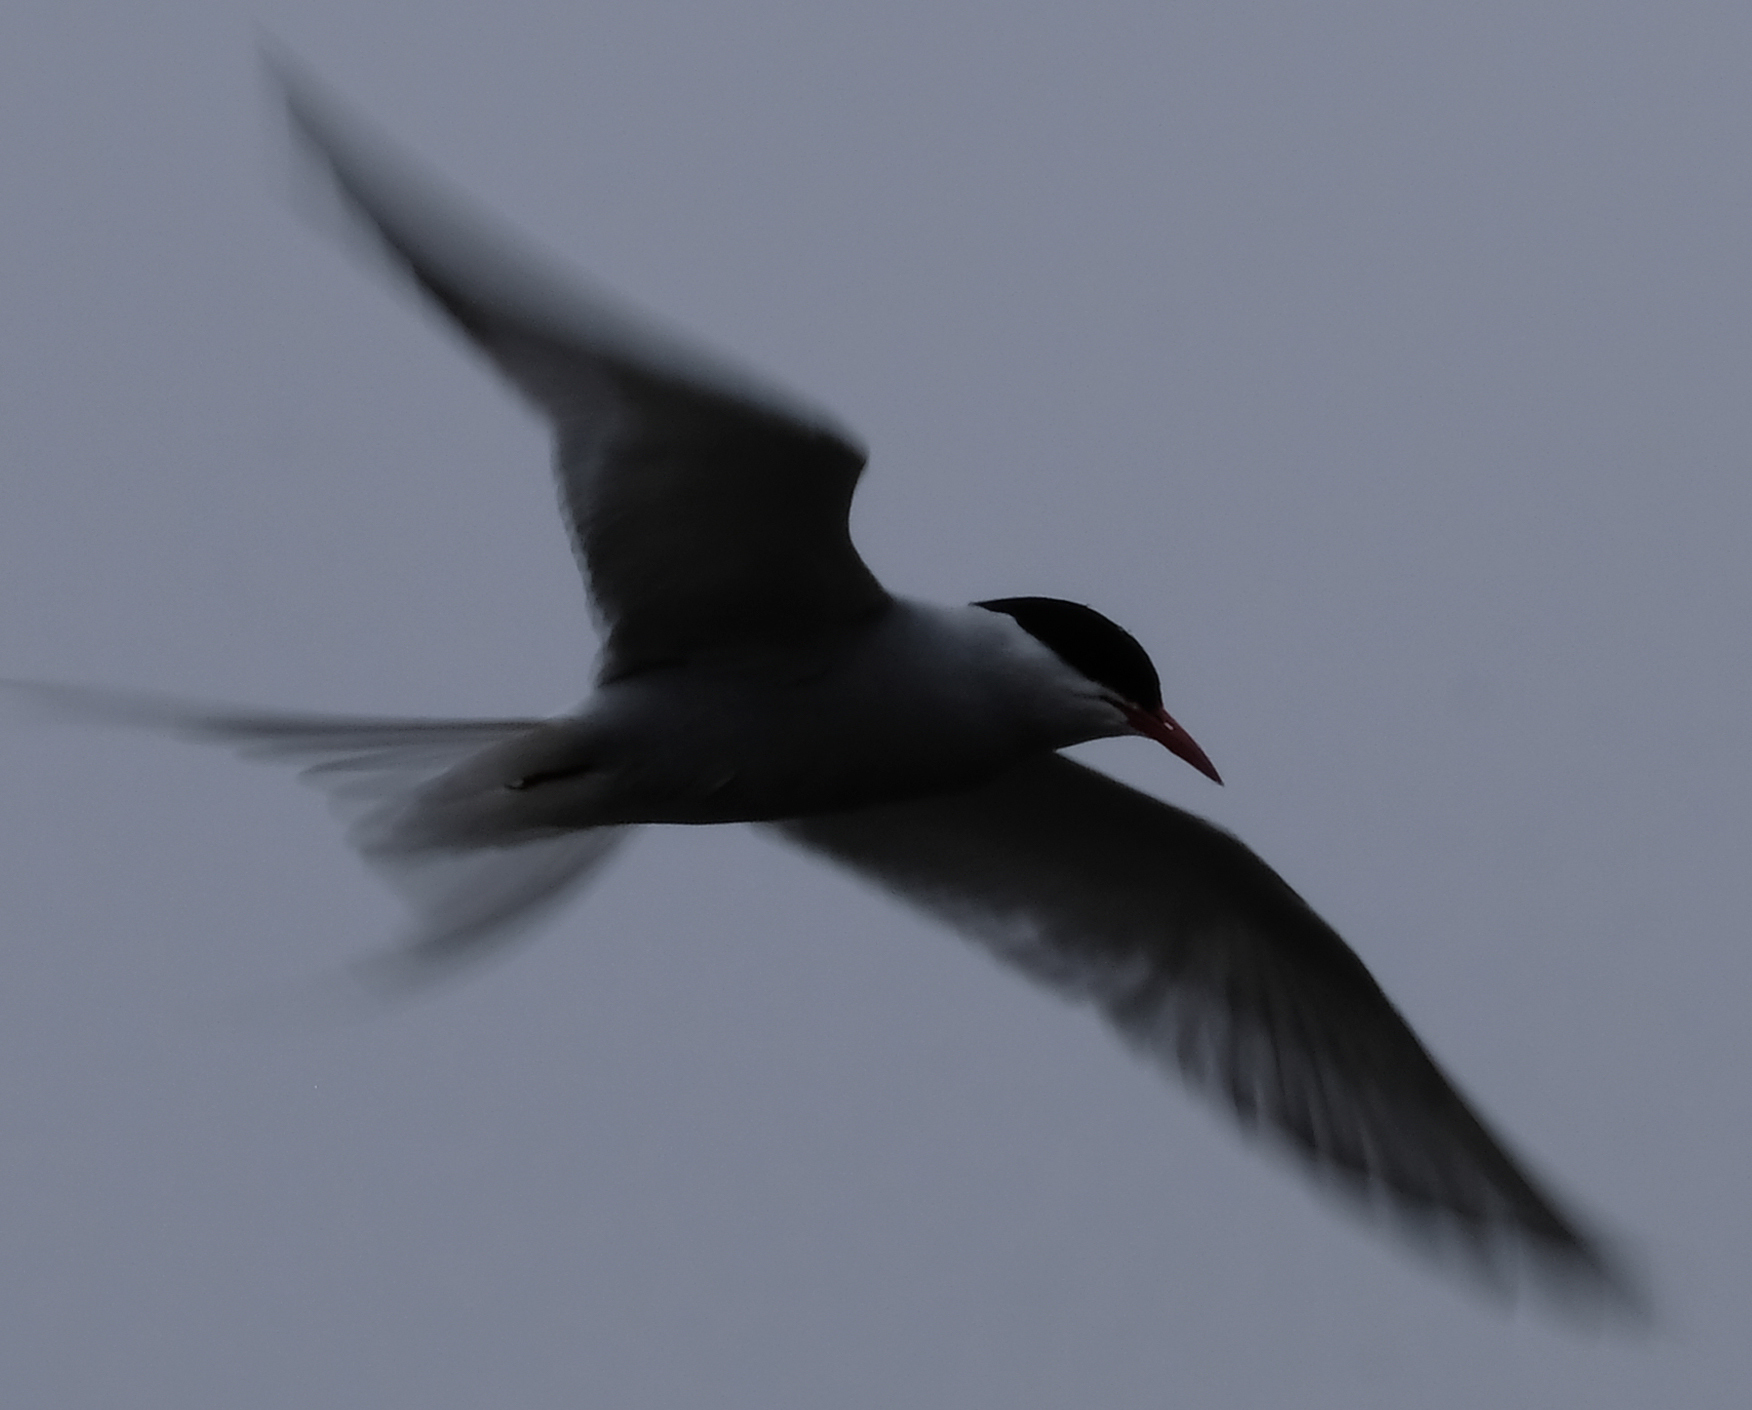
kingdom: Animalia
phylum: Chordata
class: Aves
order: Charadriiformes
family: Laridae
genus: Sterna
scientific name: Sterna paradisaea
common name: Arctic tern
